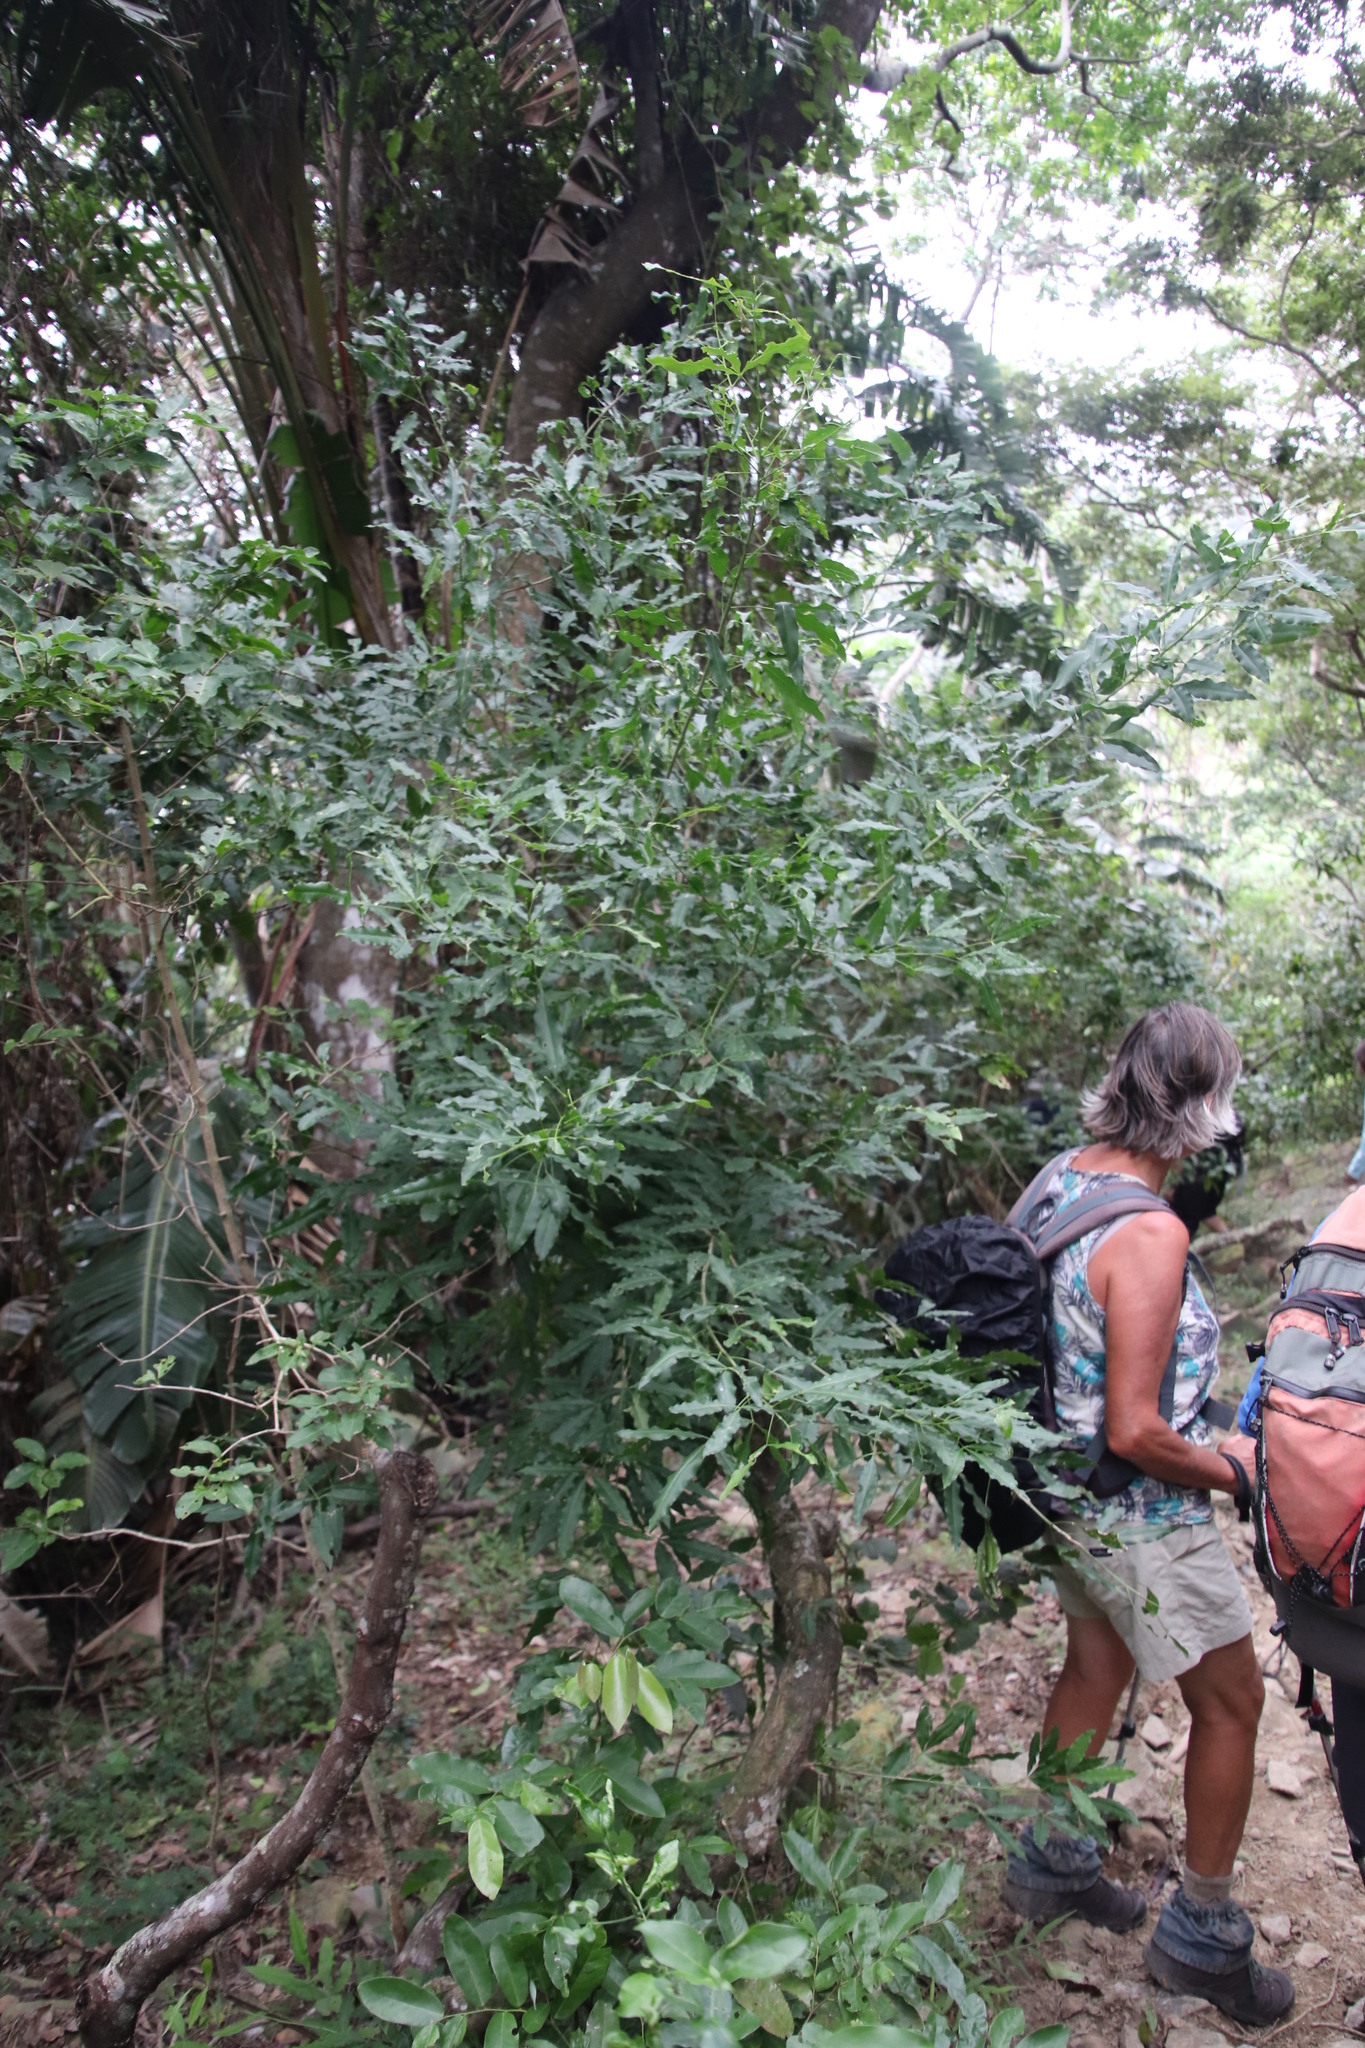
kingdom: Plantae
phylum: Tracheophyta
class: Magnoliopsida
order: Sapindales
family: Rutaceae
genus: Vepris
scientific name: Vepris lanceolata
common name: White ironwood
